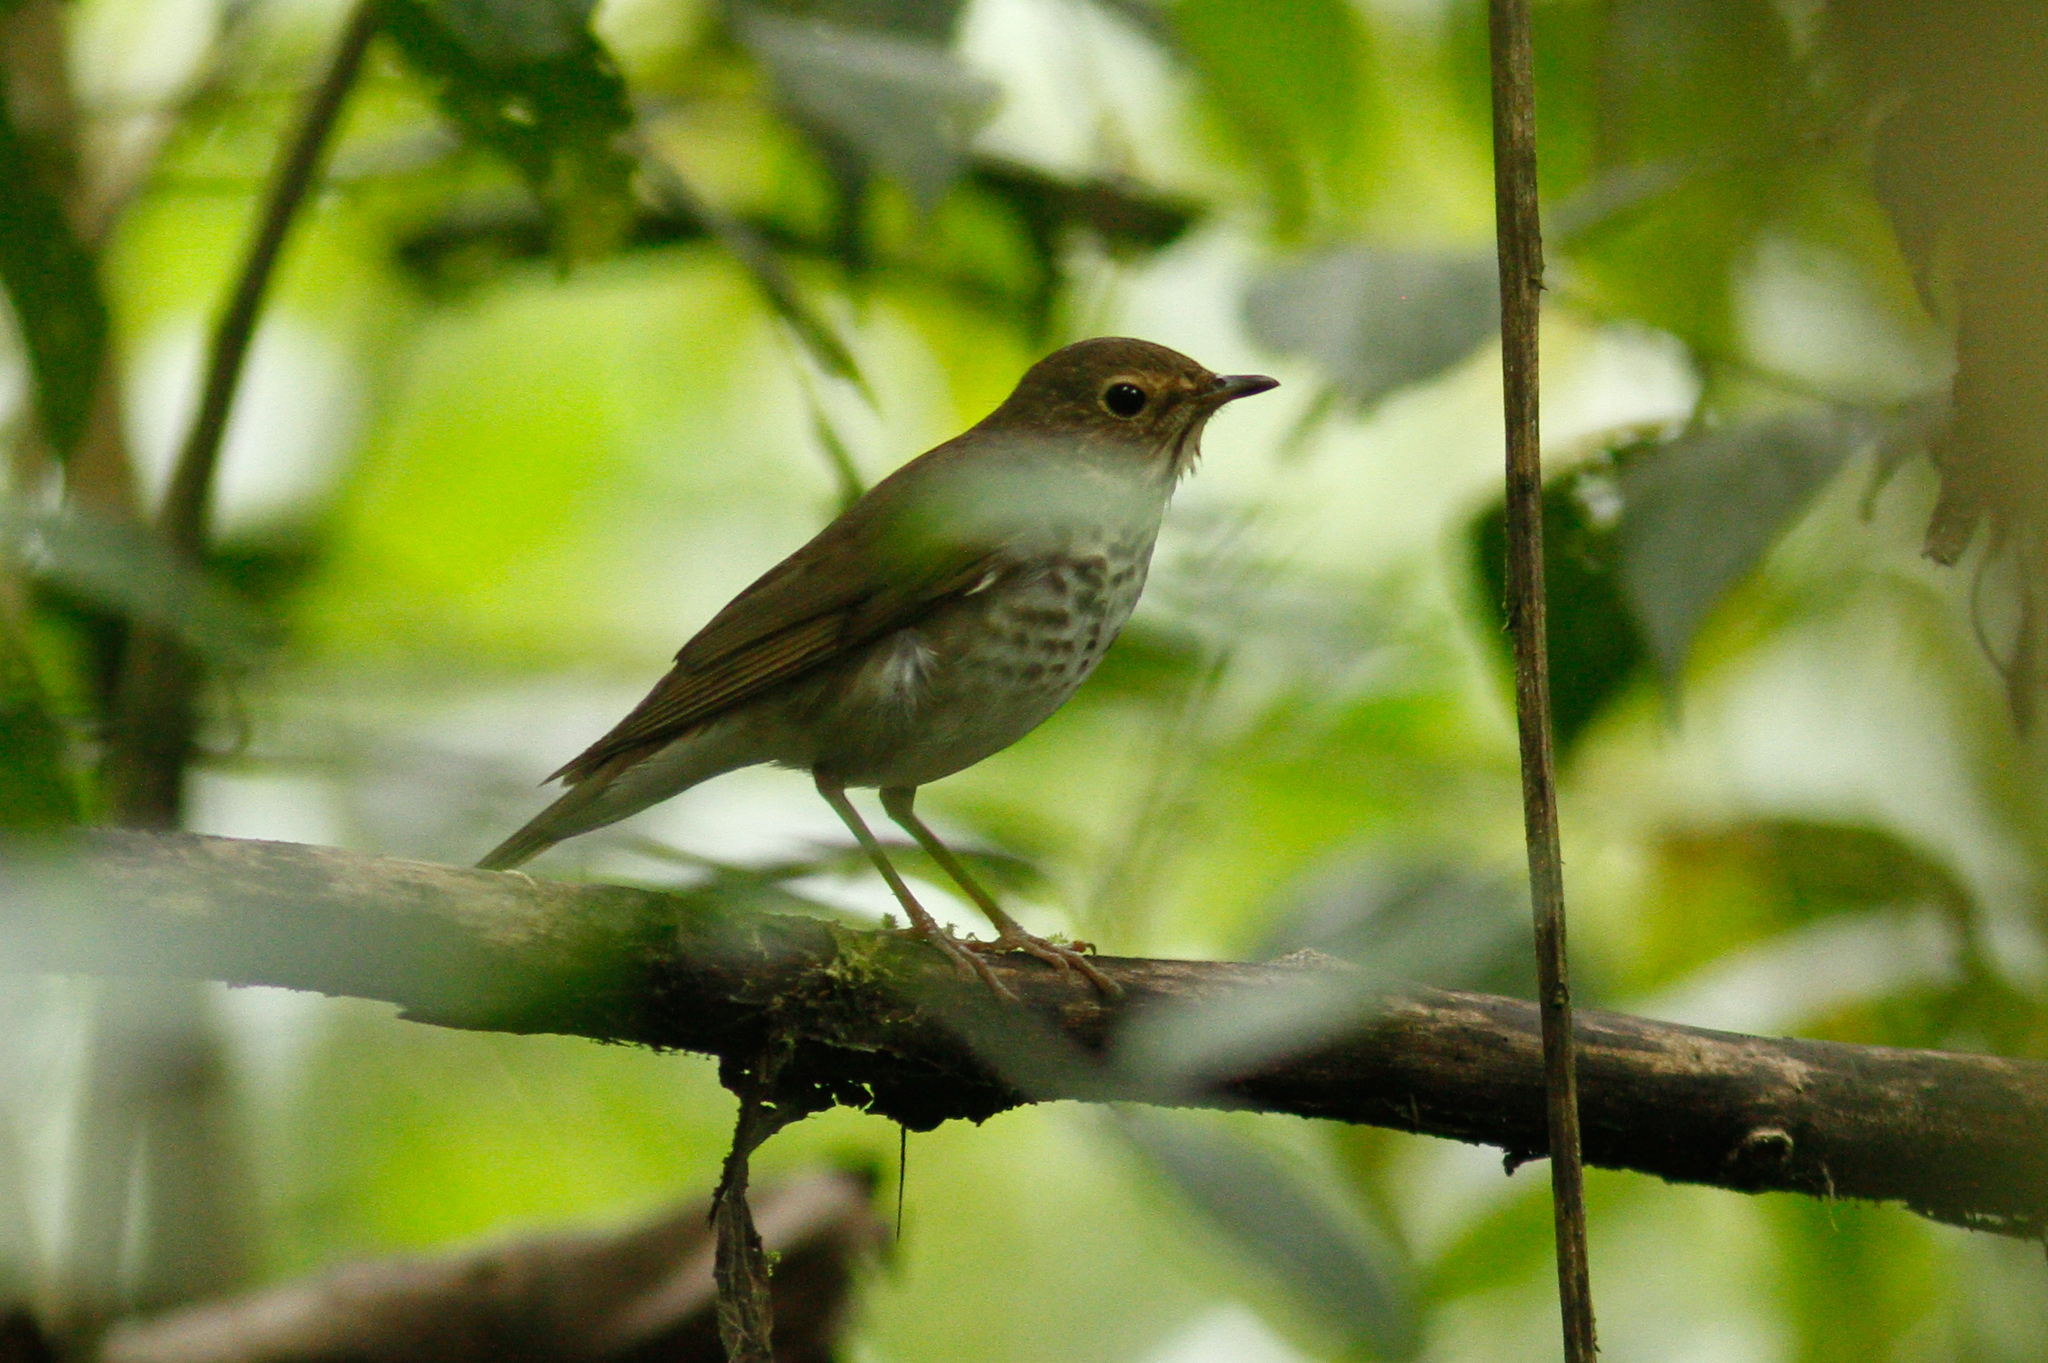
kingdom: Animalia
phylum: Chordata
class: Aves
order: Passeriformes
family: Turdidae
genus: Catharus
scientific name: Catharus ustulatus
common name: Swainson's thrush
